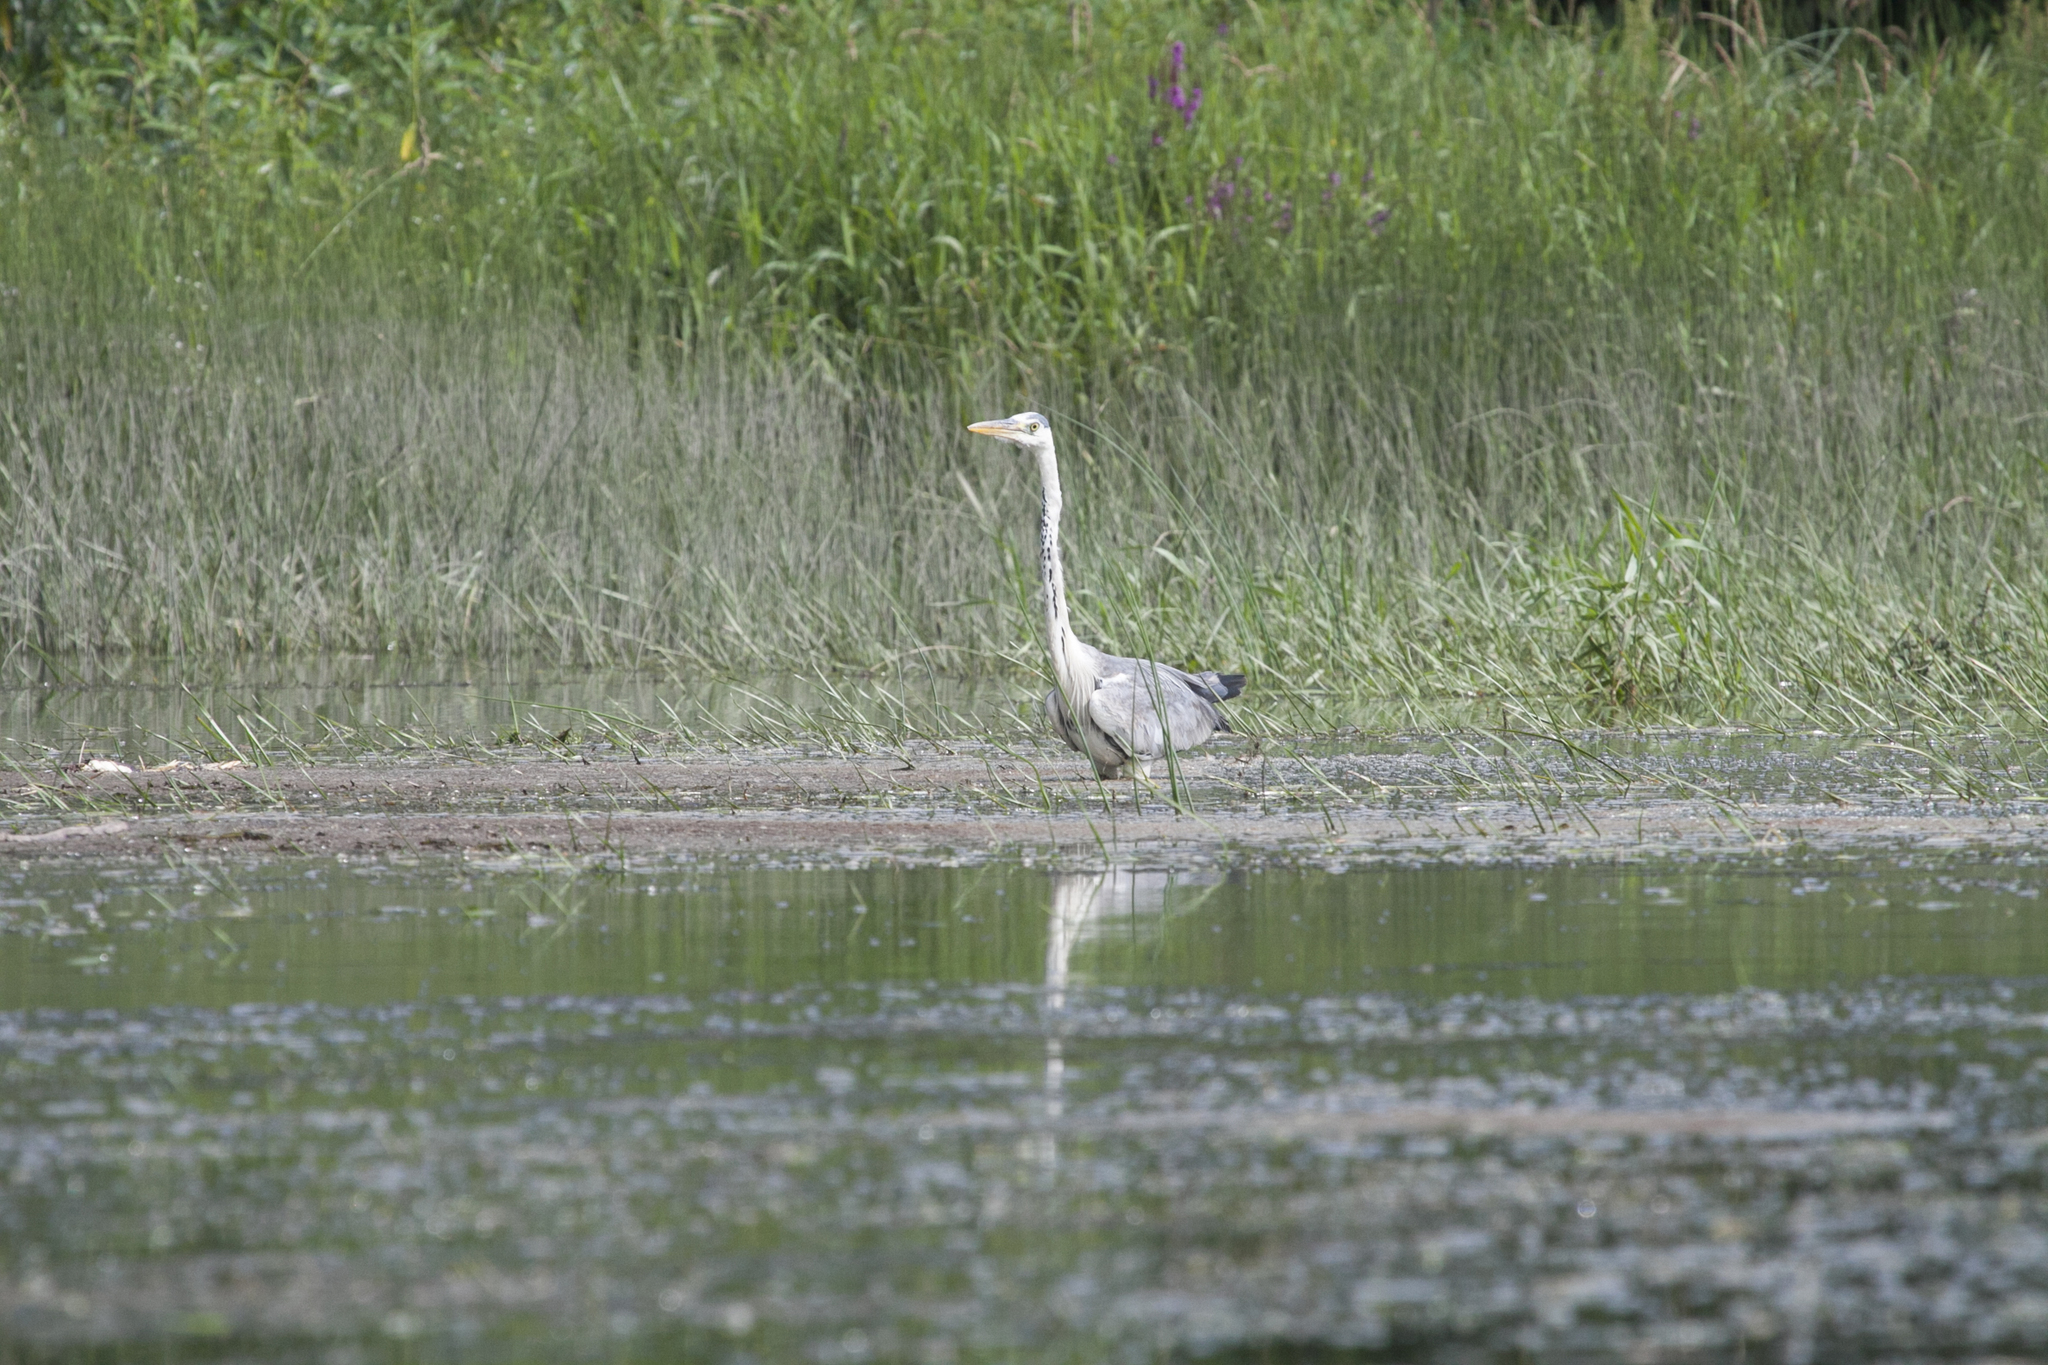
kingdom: Animalia
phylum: Chordata
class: Aves
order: Pelecaniformes
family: Ardeidae
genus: Ardea
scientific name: Ardea cinerea
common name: Grey heron
